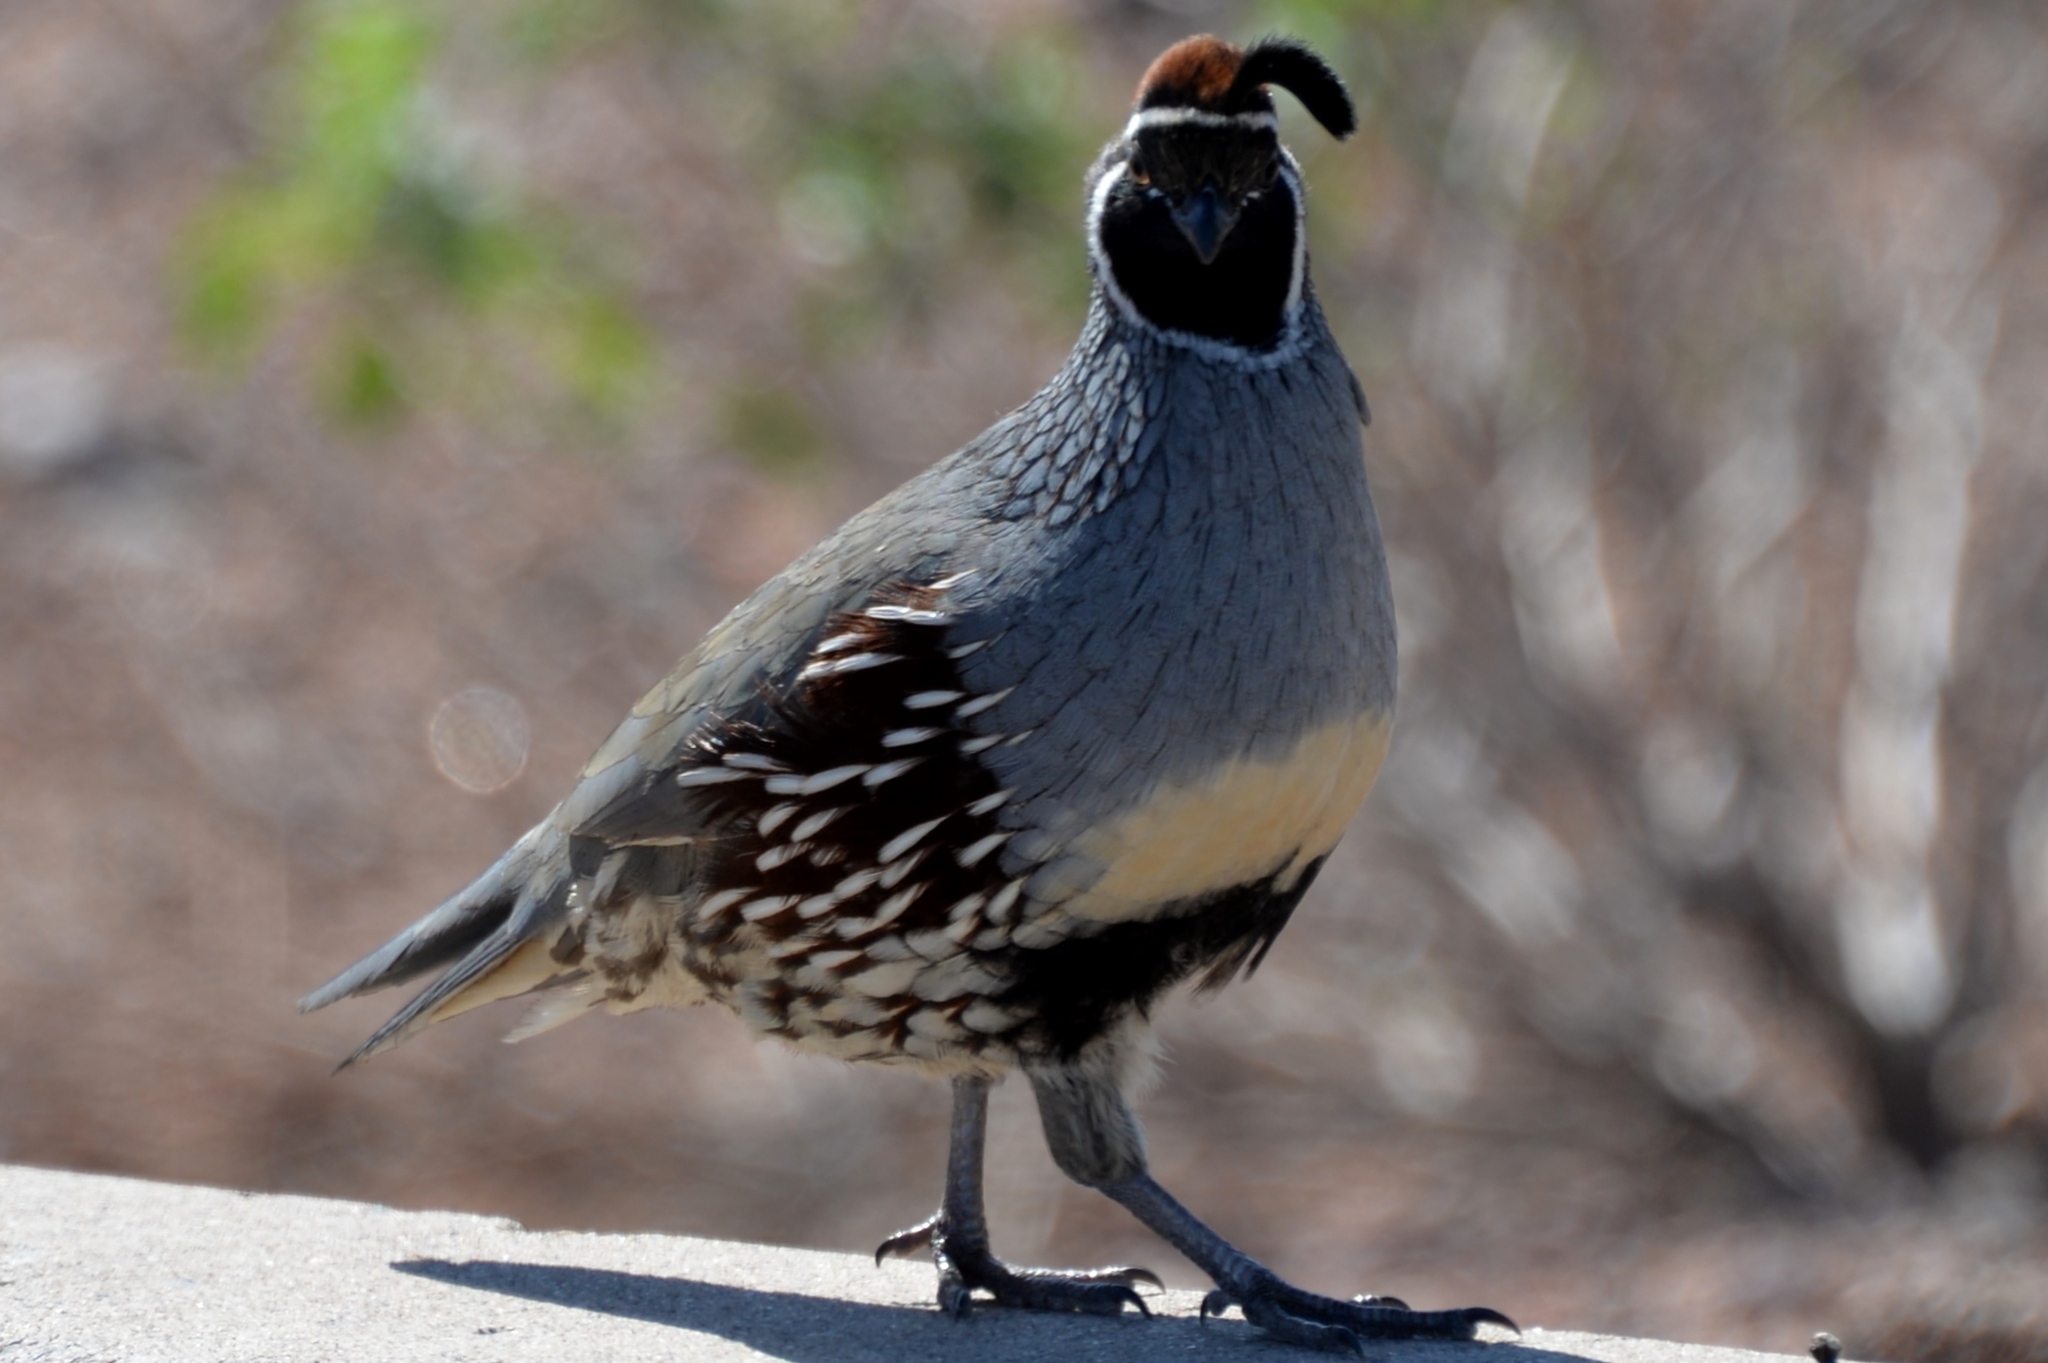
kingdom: Animalia
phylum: Chordata
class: Aves
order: Galliformes
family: Odontophoridae
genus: Callipepla
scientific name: Callipepla gambelii
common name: Gambel's quail
